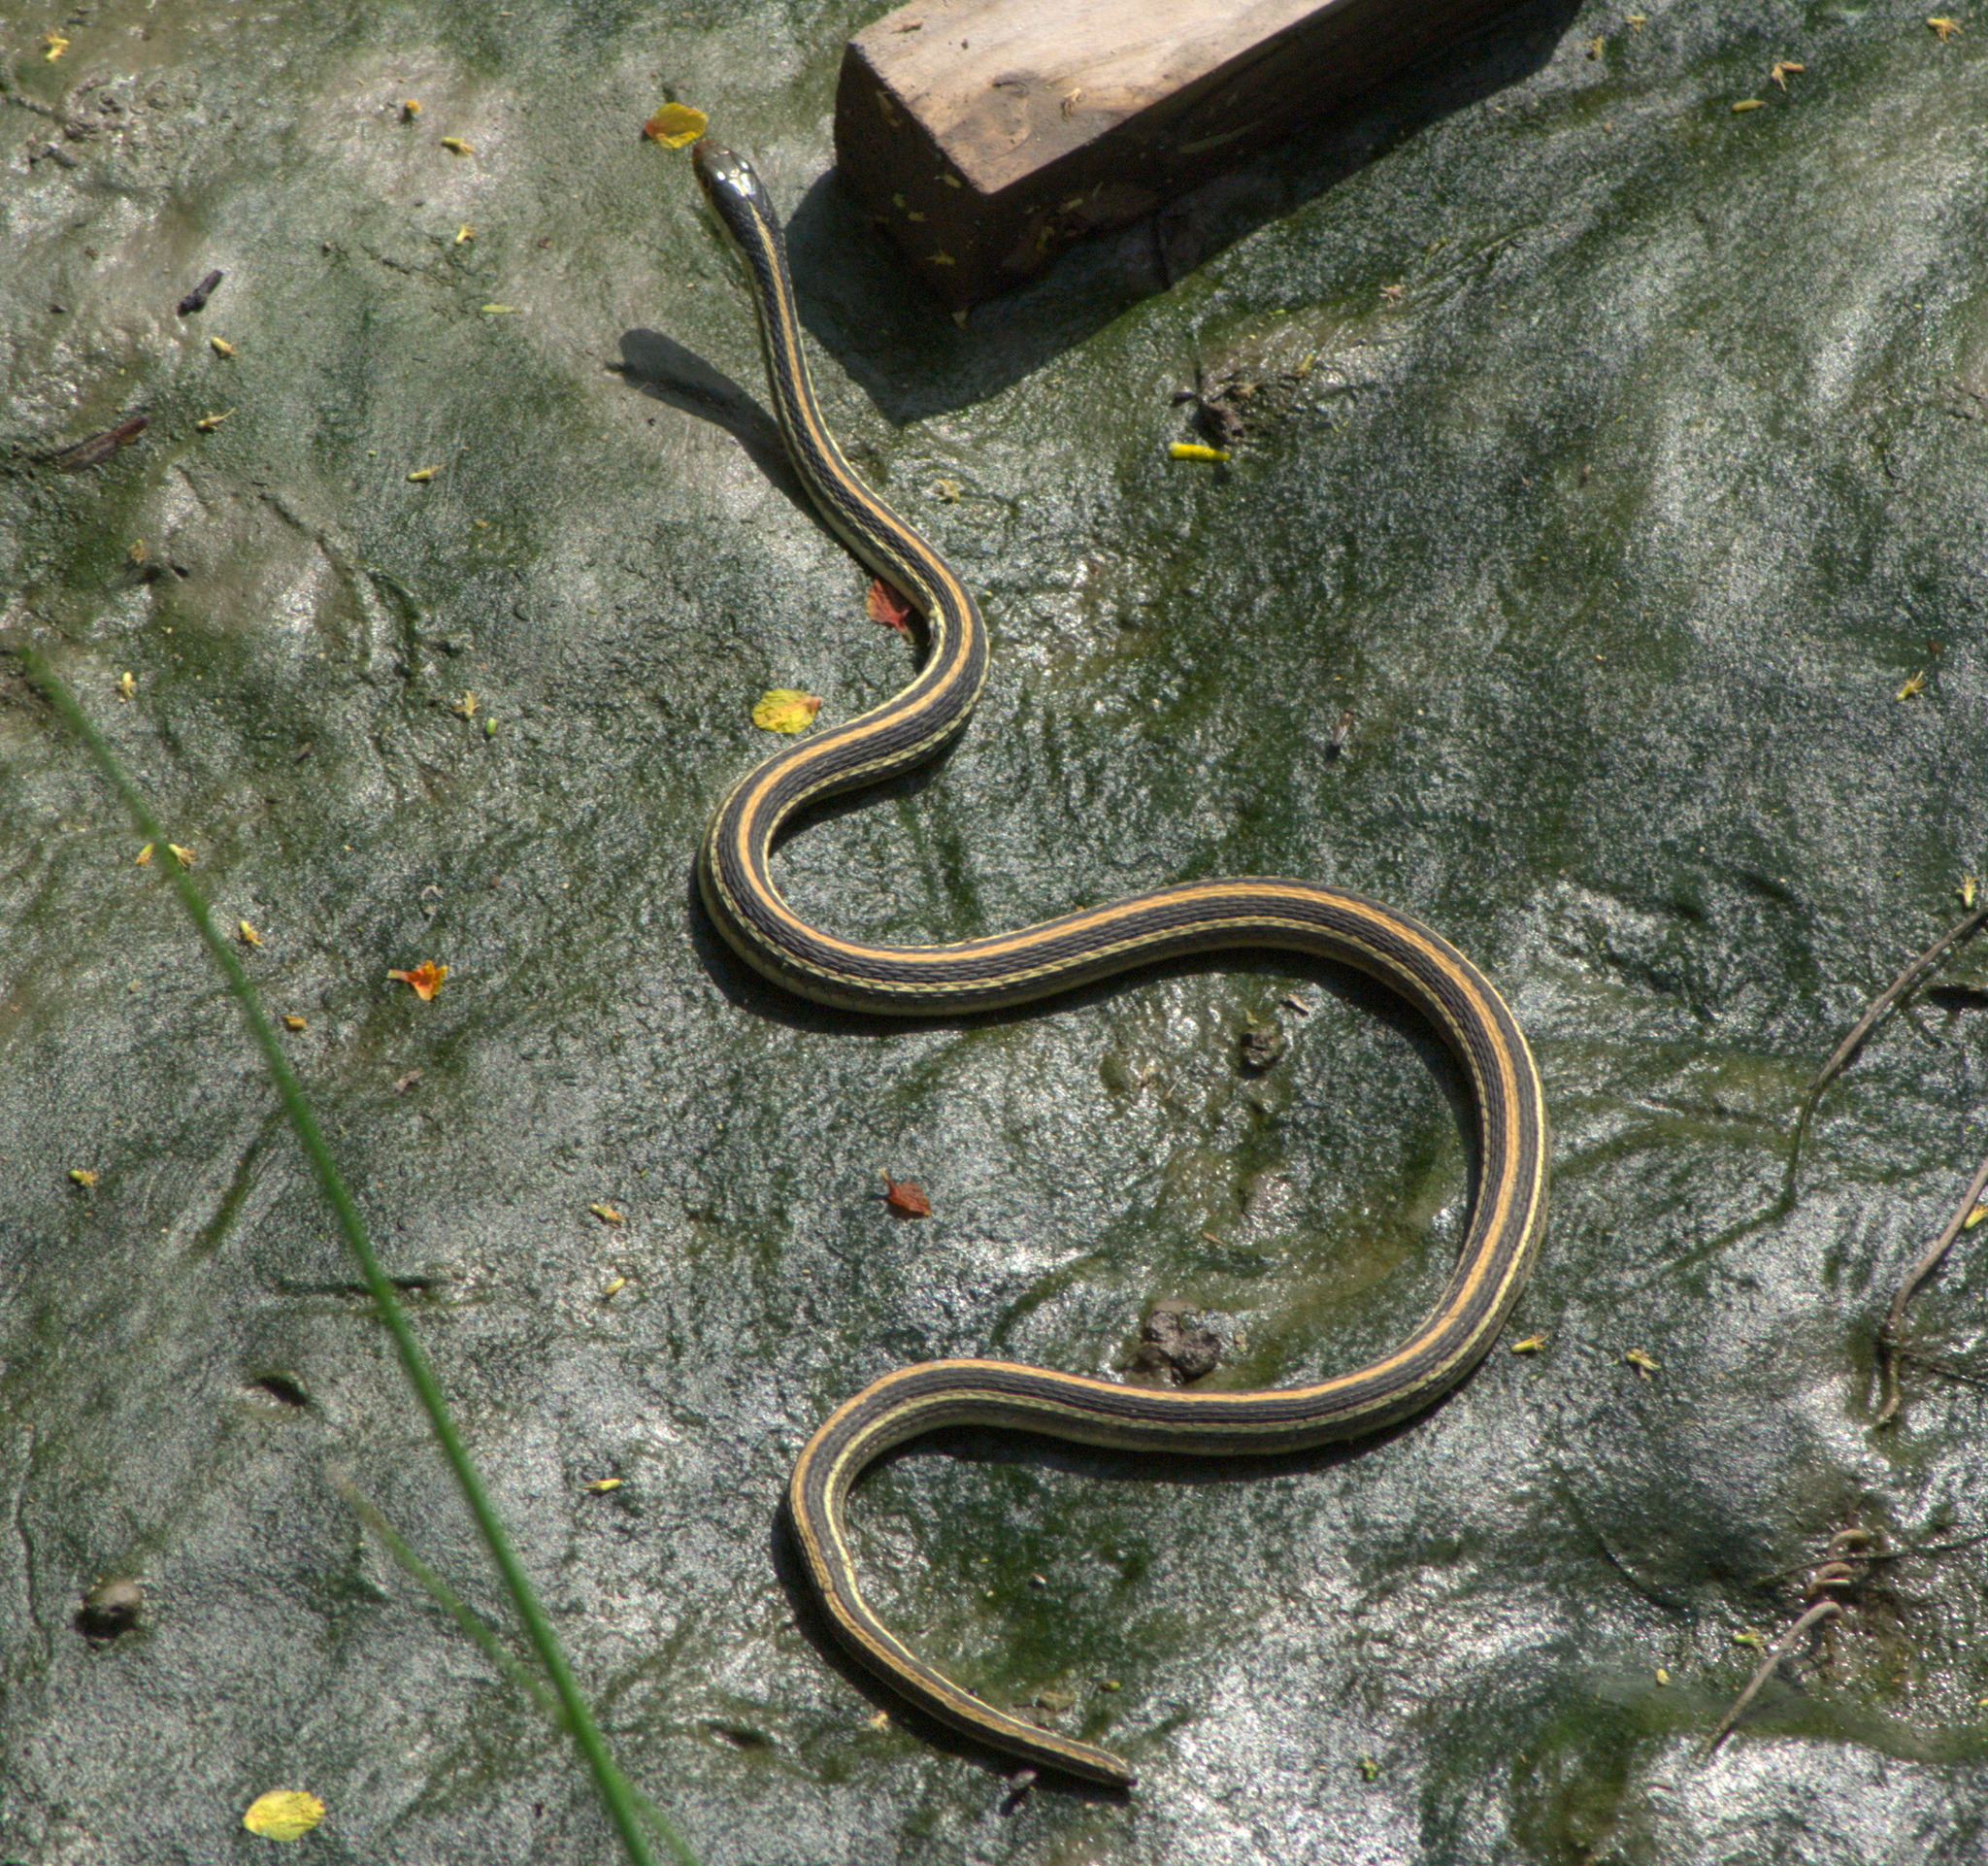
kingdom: Animalia
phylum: Chordata
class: Squamata
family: Colubridae
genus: Thamnophis
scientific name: Thamnophis proximus
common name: Western ribbon snake
